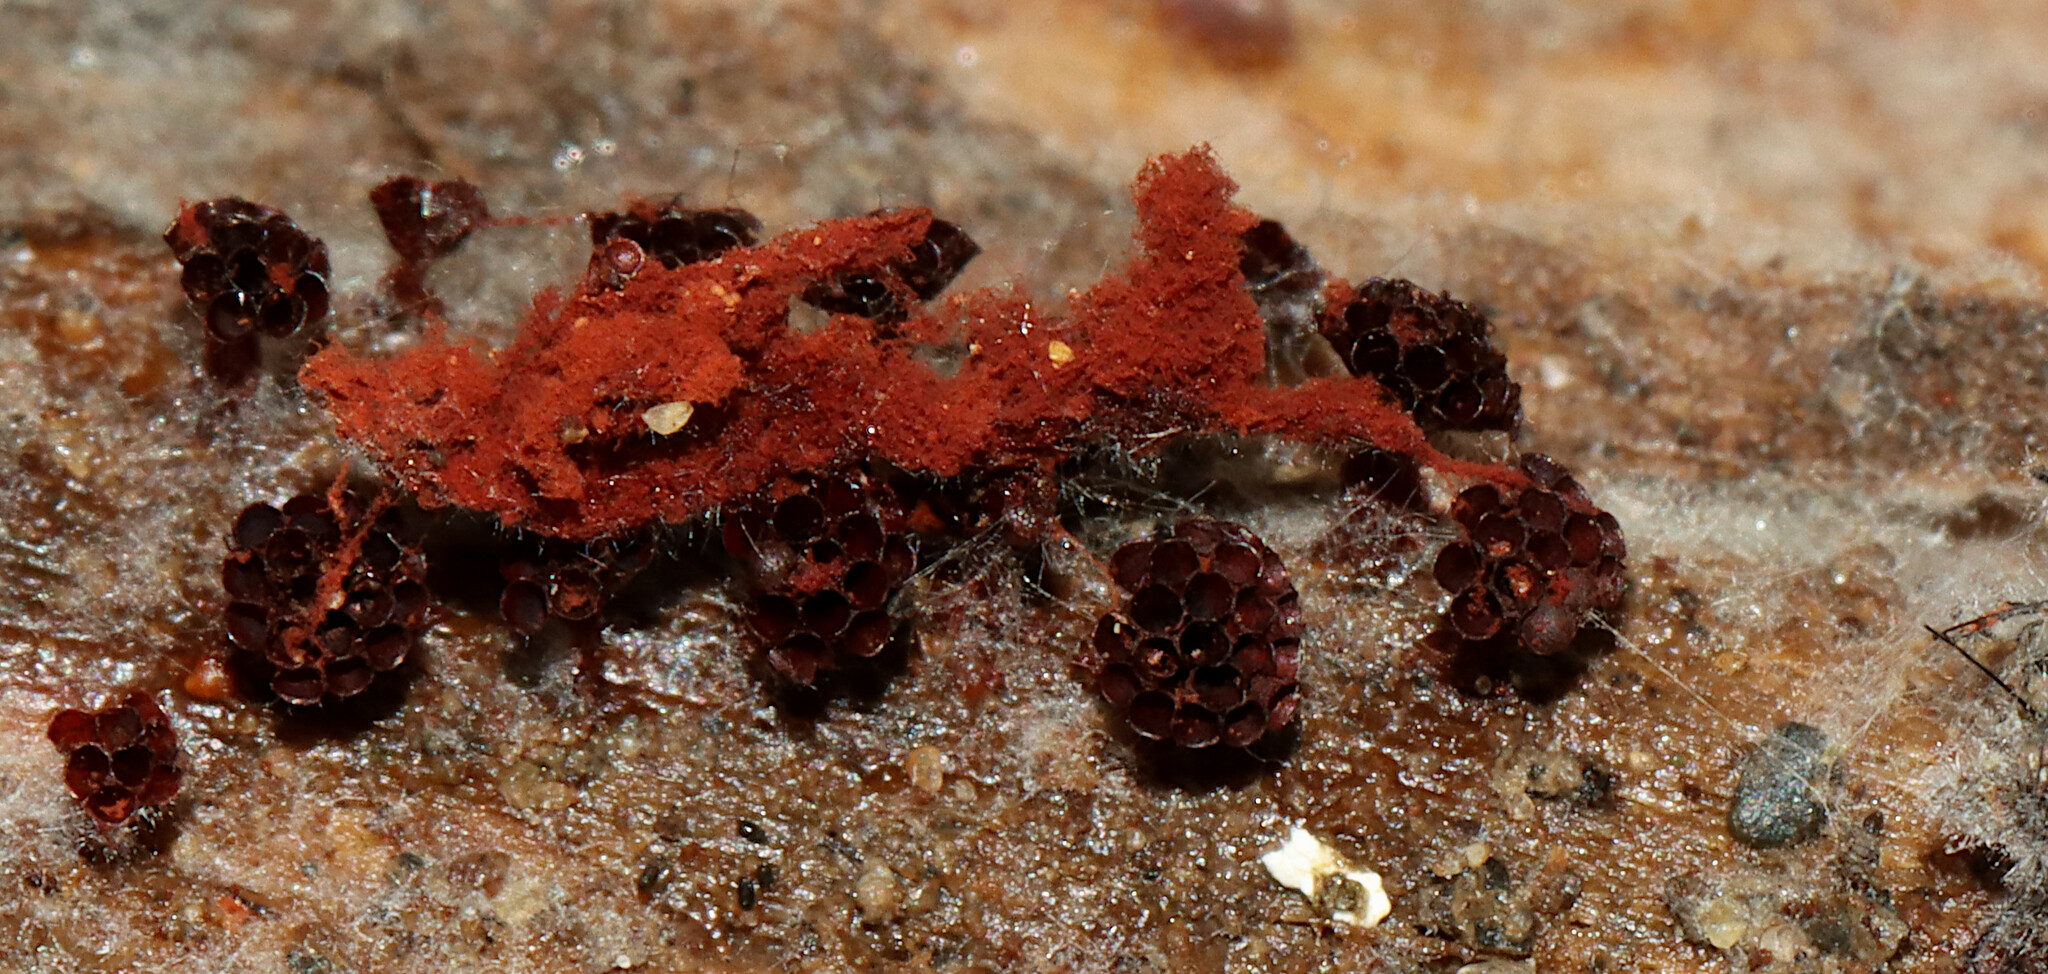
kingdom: Protozoa
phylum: Mycetozoa
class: Myxomycetes
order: Trichiales
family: Trichiaceae
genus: Metatrichia
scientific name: Metatrichia vesparia
